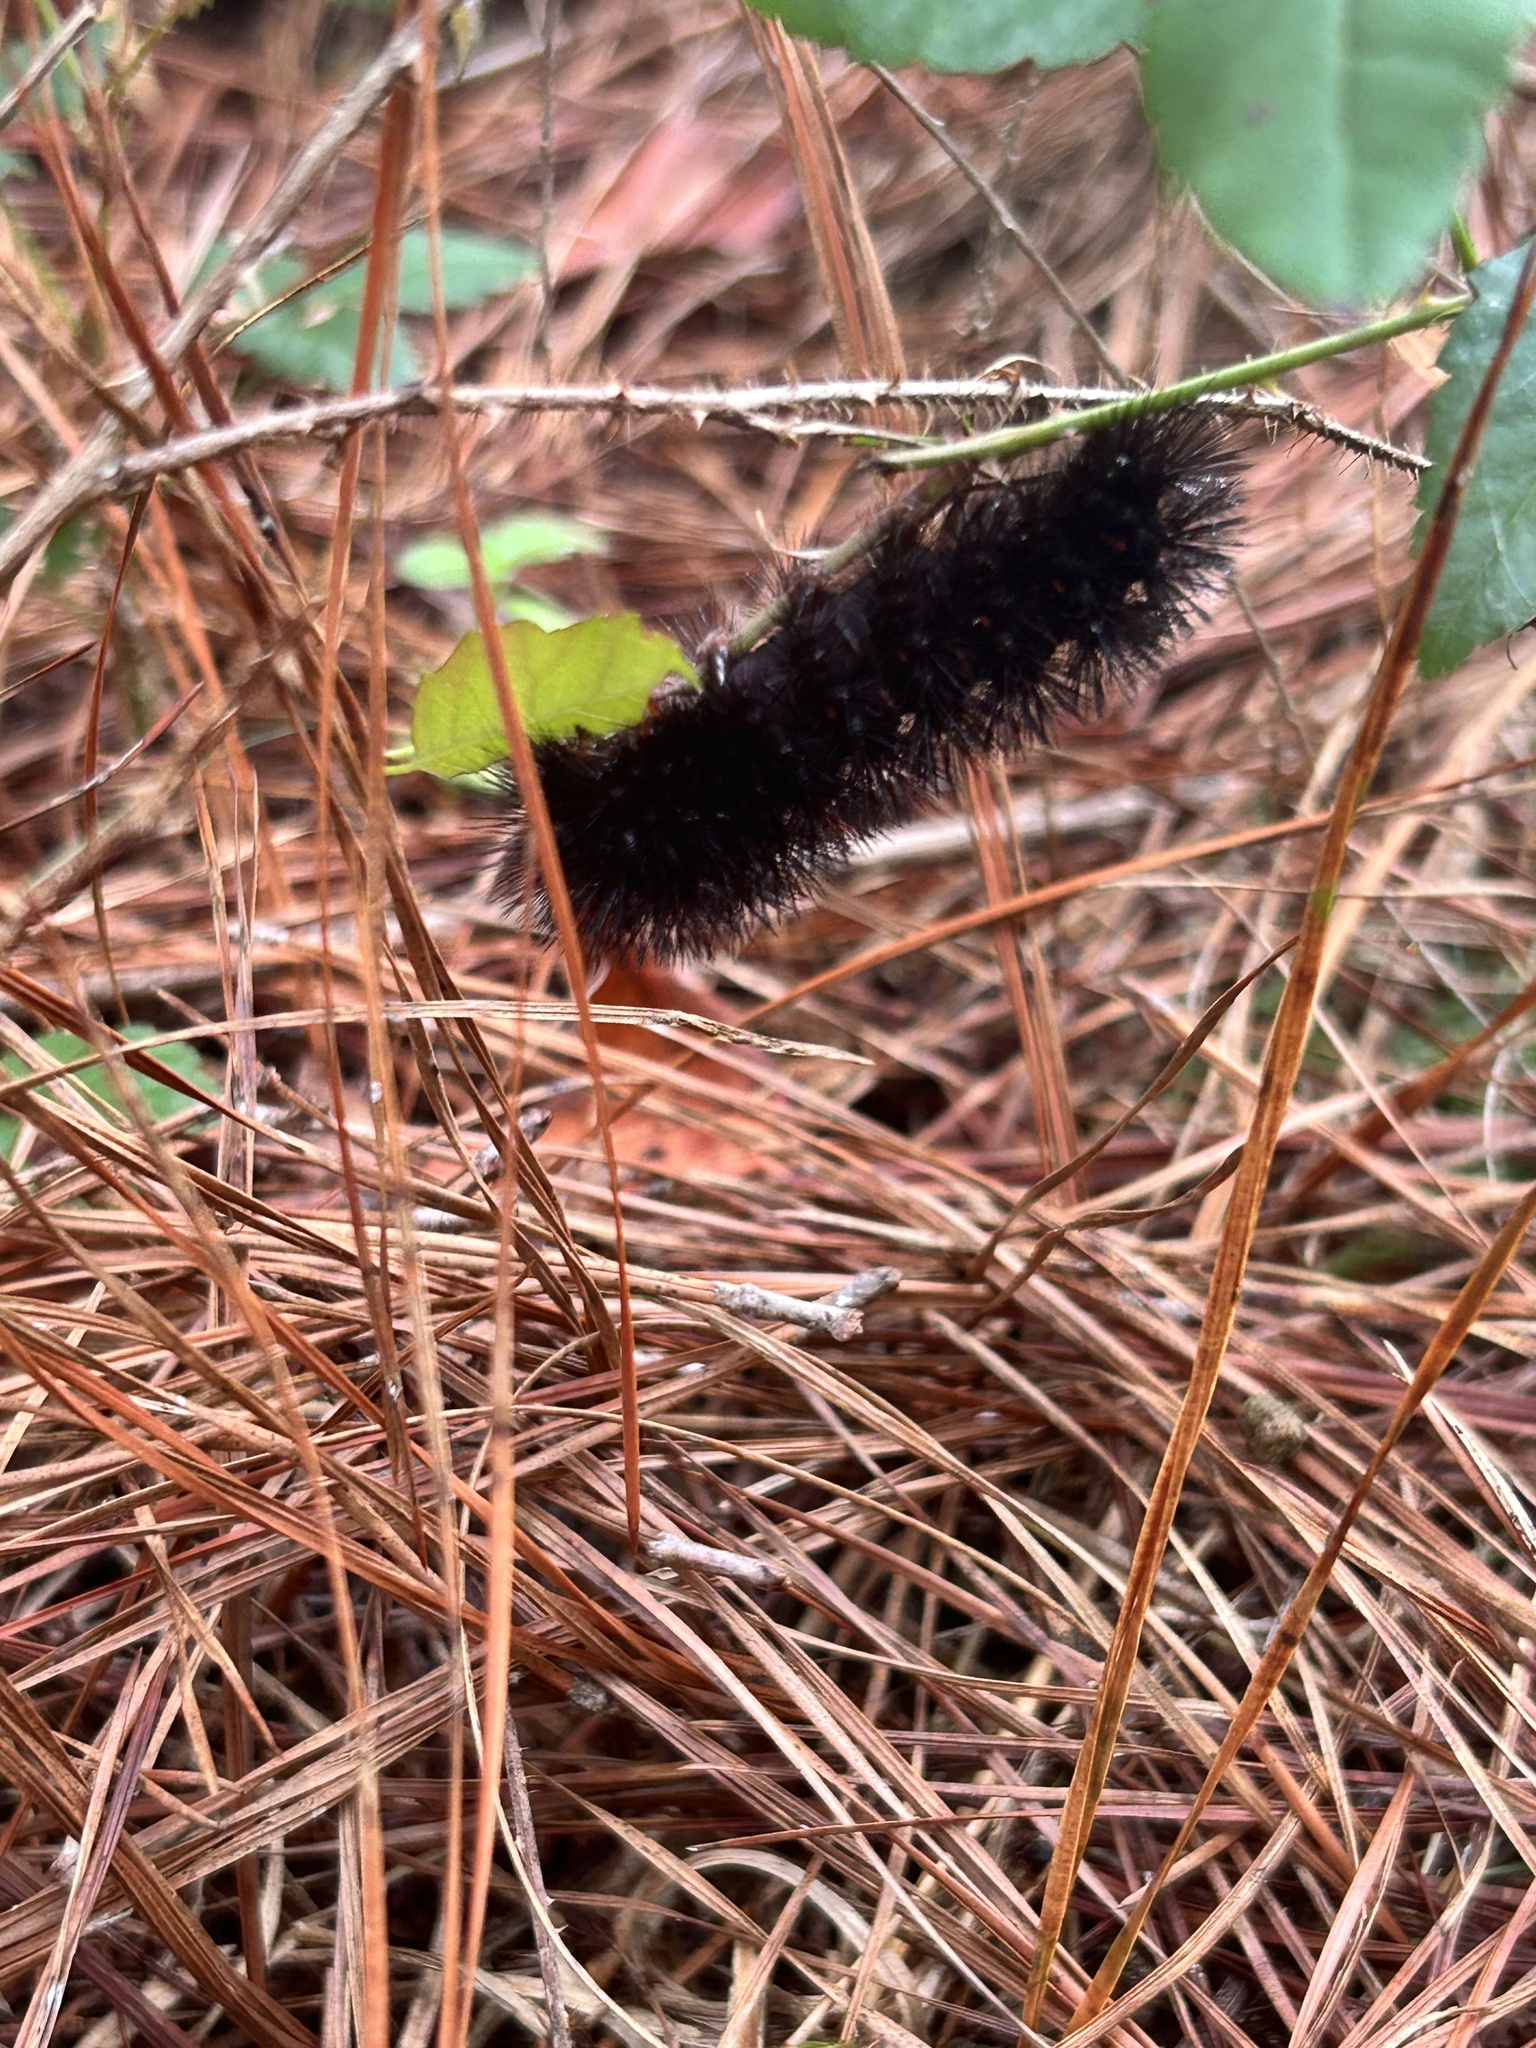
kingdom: Animalia
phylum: Arthropoda
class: Insecta
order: Lepidoptera
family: Erebidae
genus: Hypercompe
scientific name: Hypercompe scribonia
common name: Giant leopard moth
